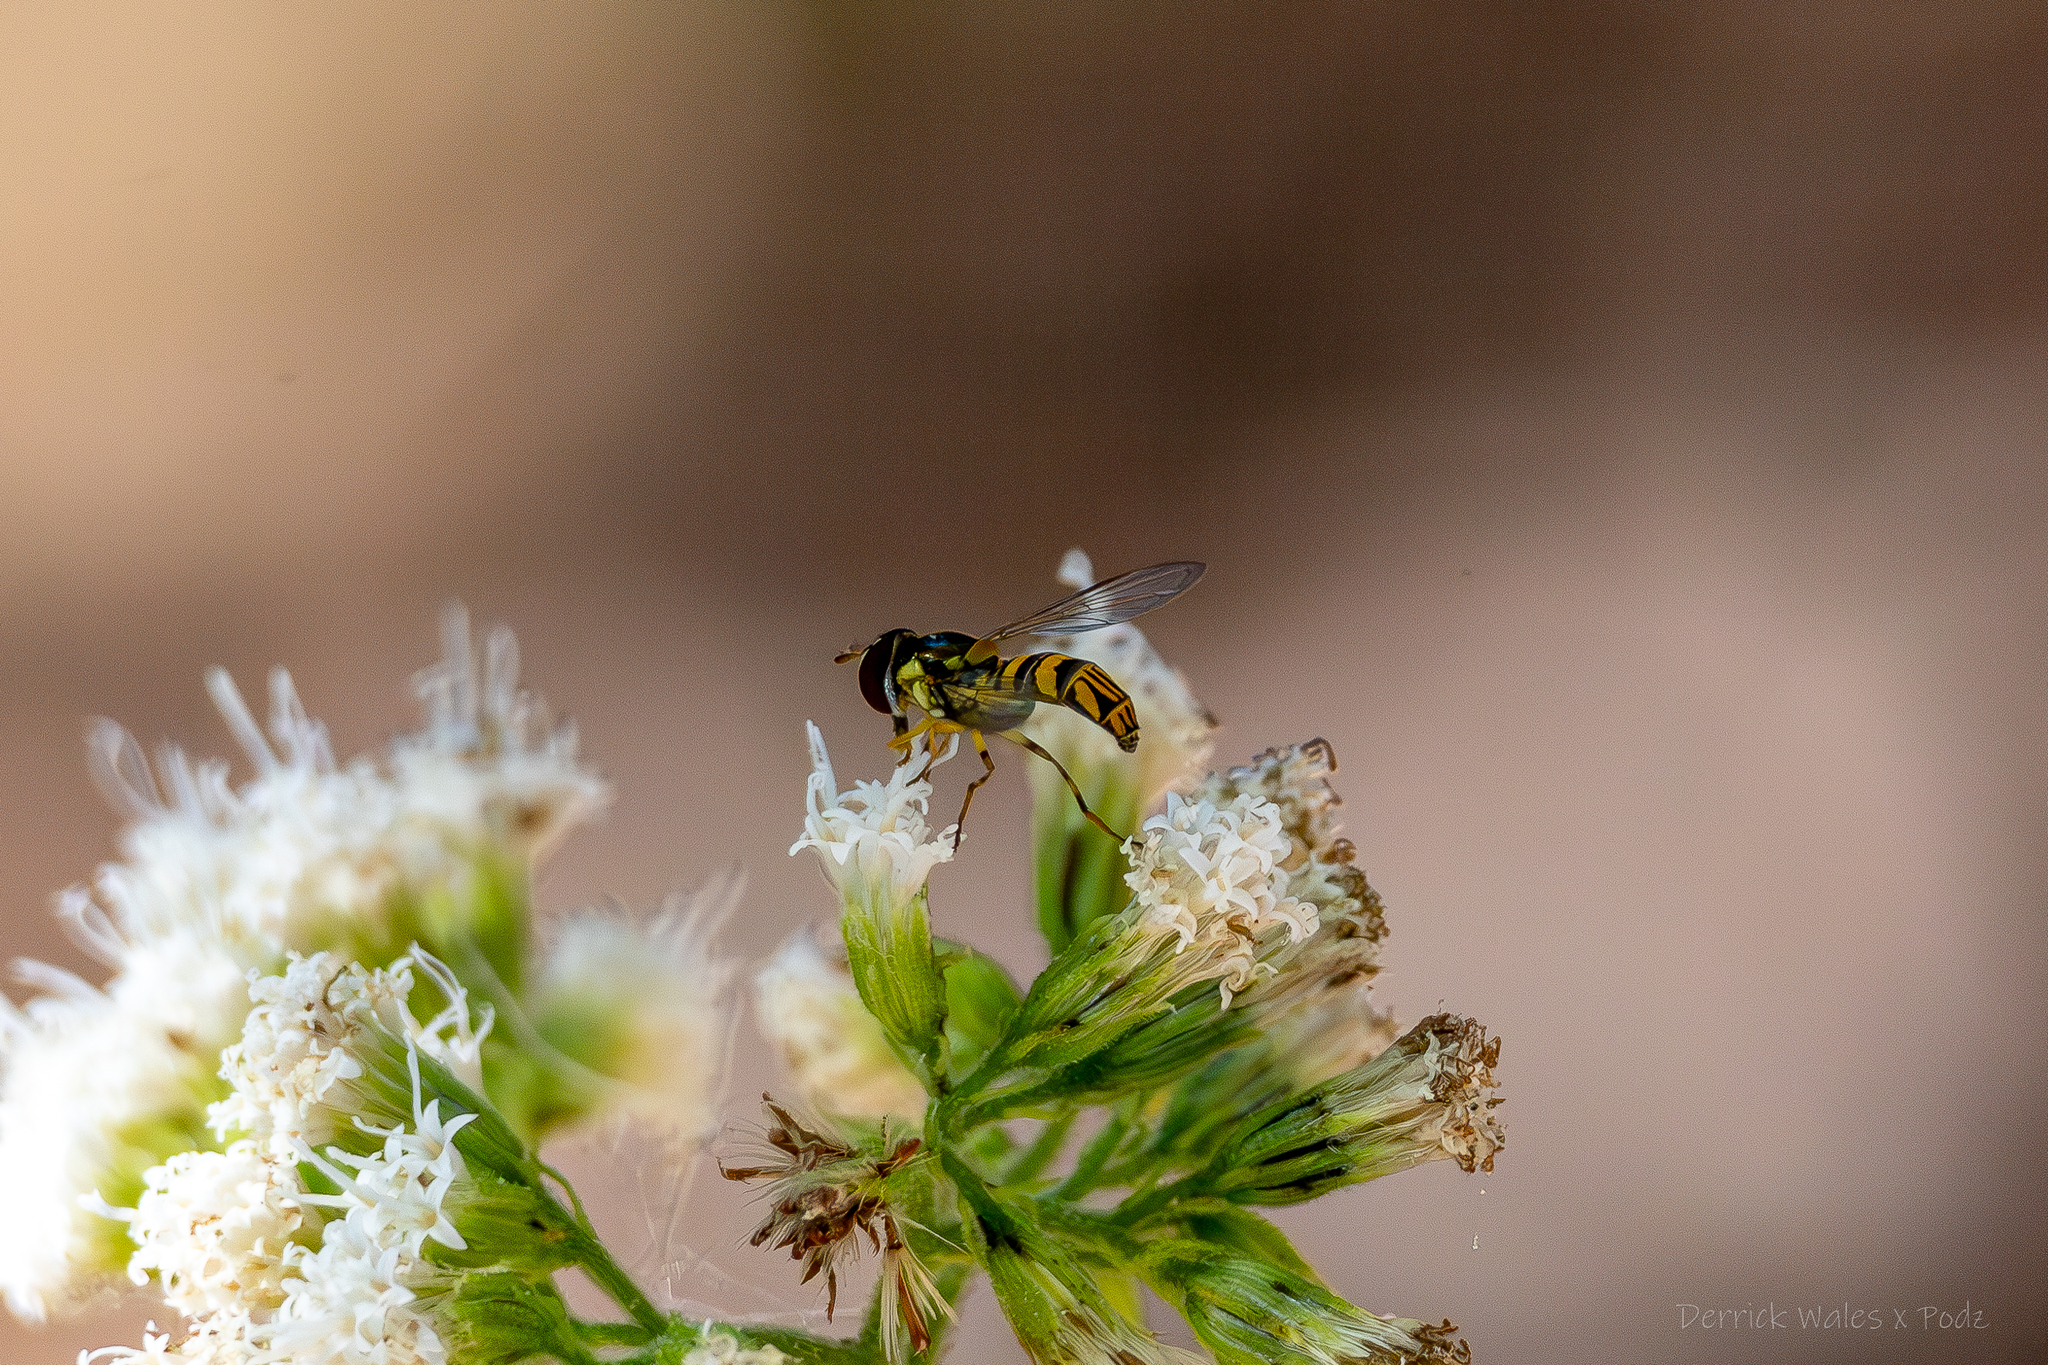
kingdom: Animalia
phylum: Arthropoda
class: Insecta
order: Diptera
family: Syrphidae
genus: Allograpta
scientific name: Allograpta obliqua
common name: Common oblique syrphid
